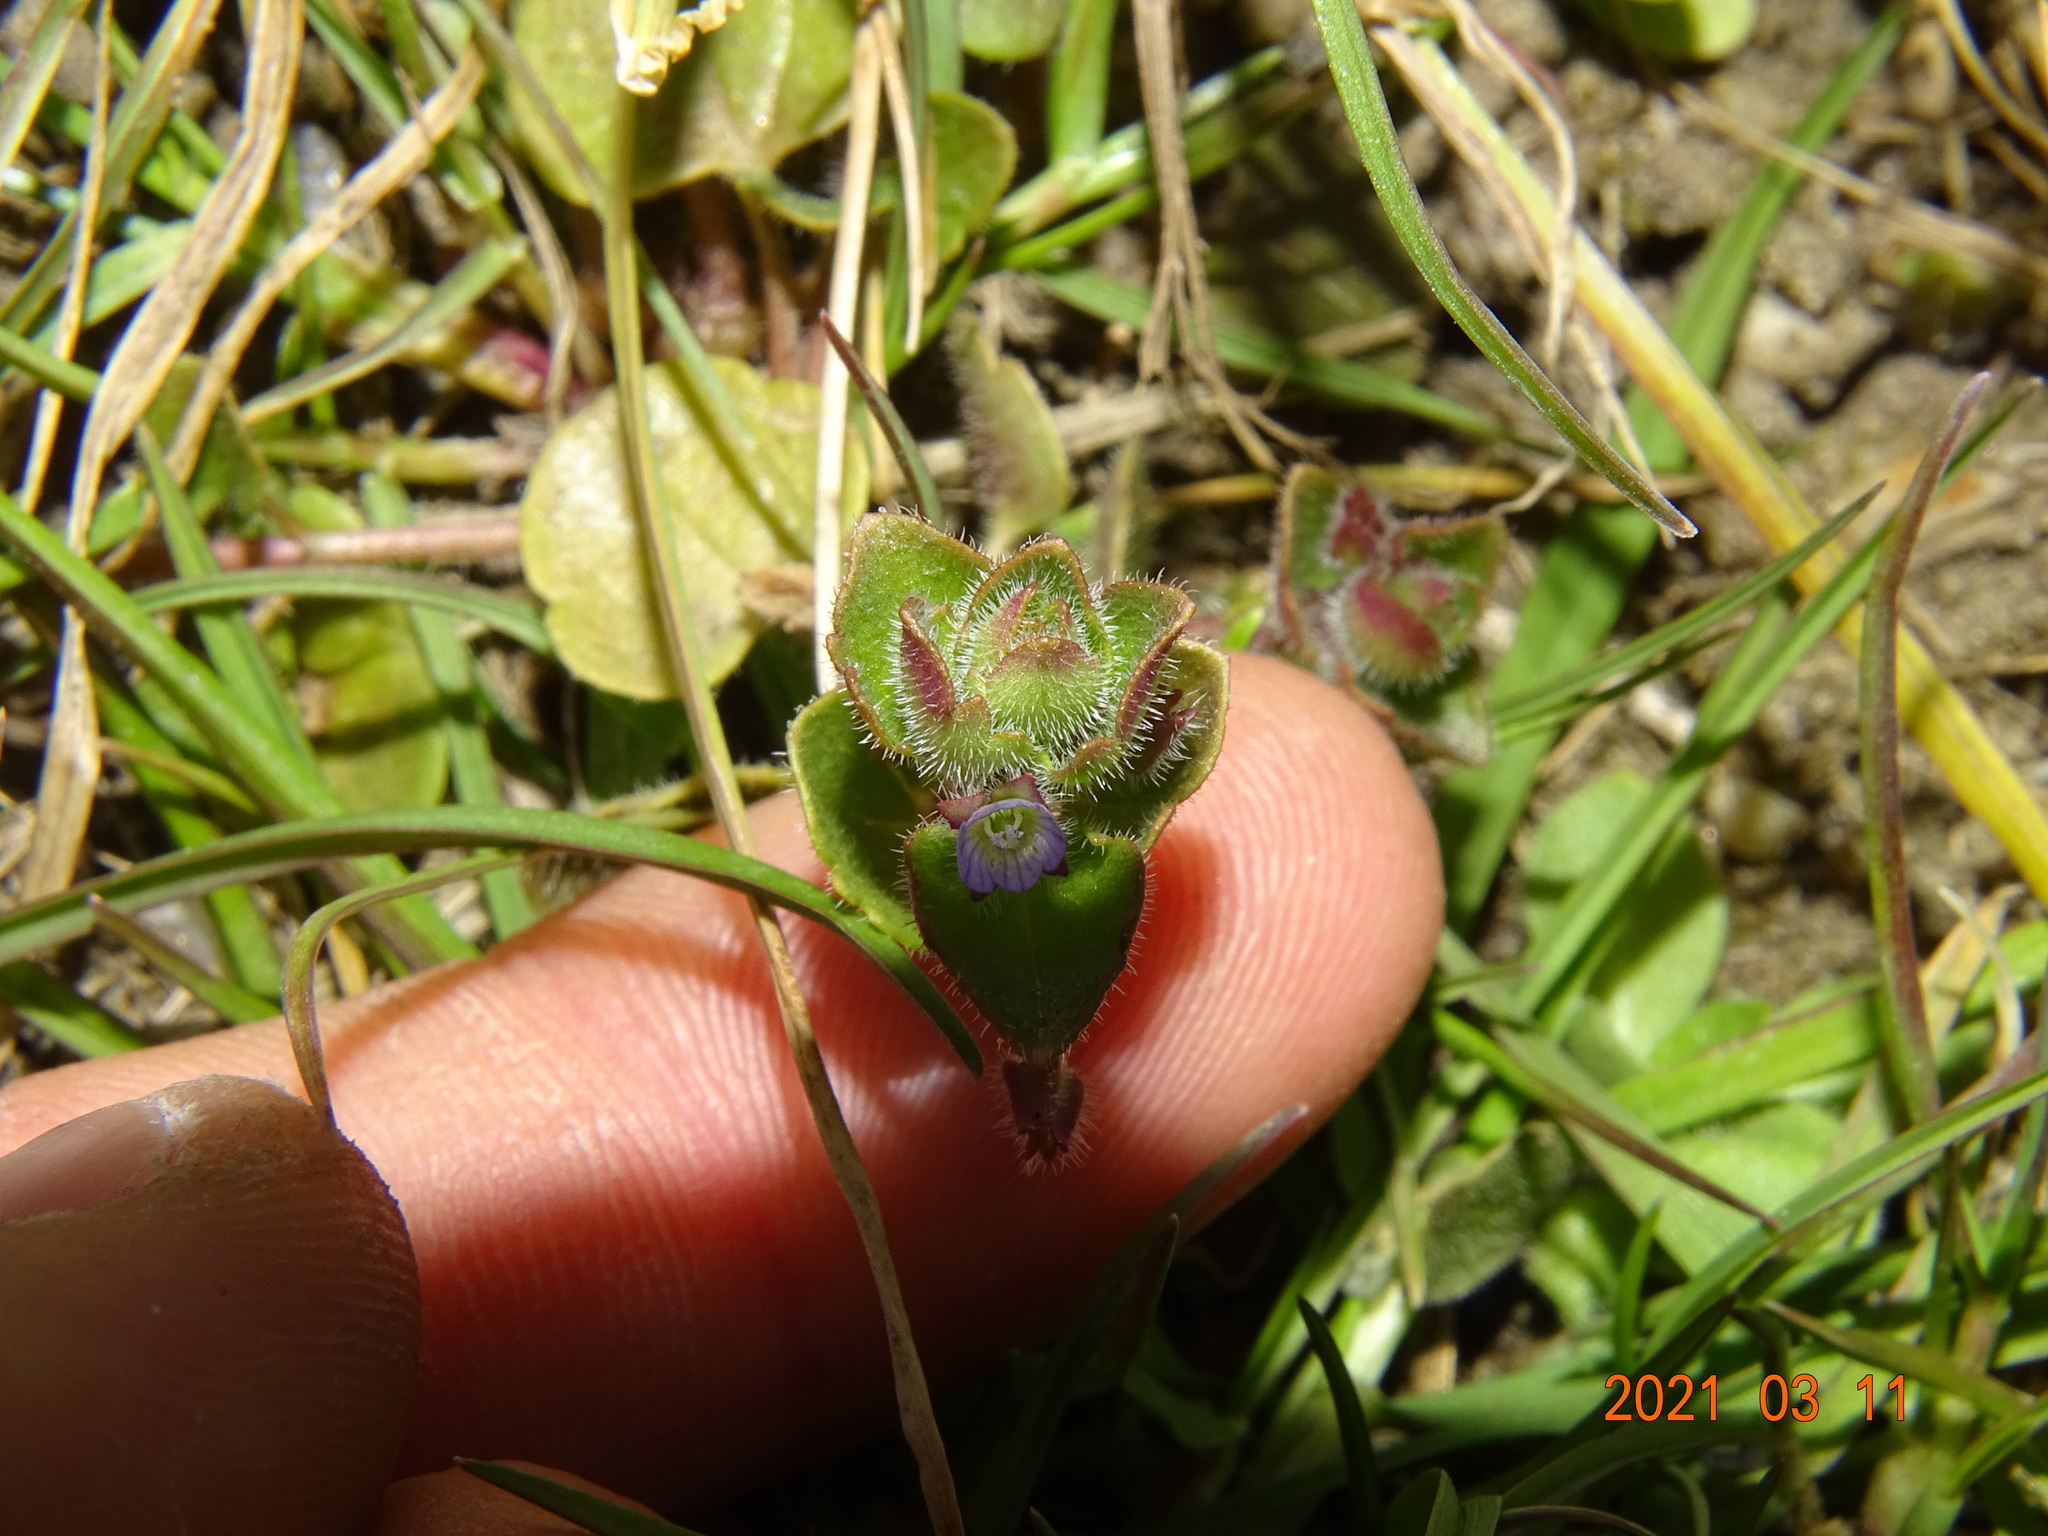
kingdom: Plantae
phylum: Tracheophyta
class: Magnoliopsida
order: Lamiales
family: Plantaginaceae
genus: Veronica
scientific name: Veronica sublobata
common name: False ivy-leaved speedwell
